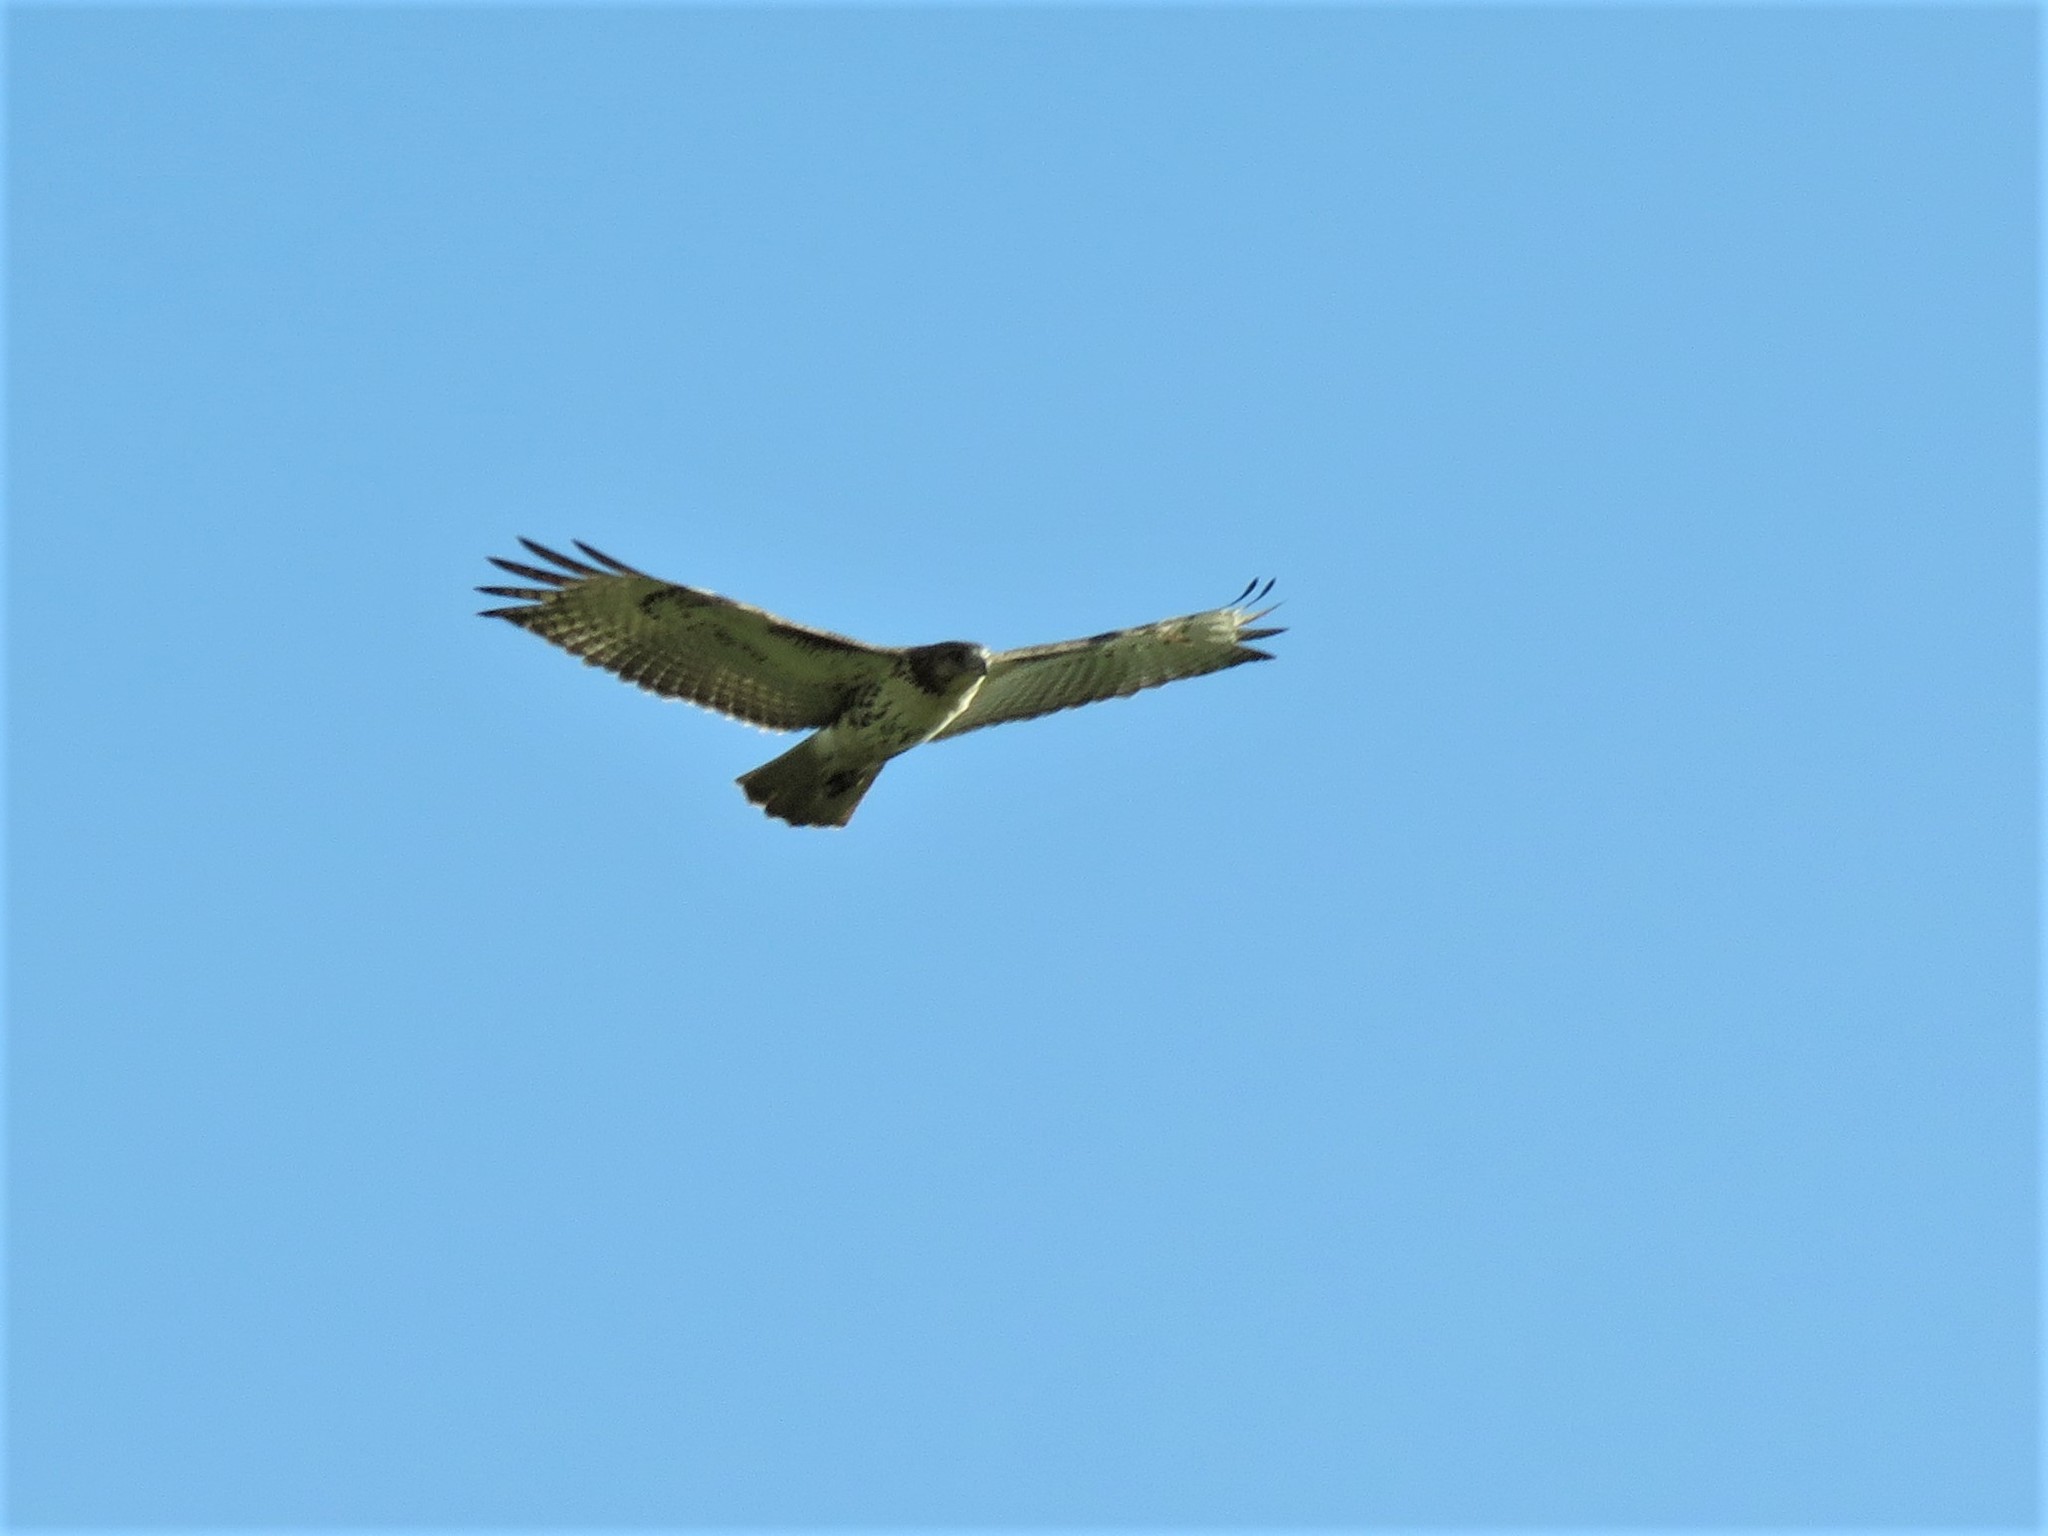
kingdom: Animalia
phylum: Chordata
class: Aves
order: Accipitriformes
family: Accipitridae
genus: Buteo
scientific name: Buteo jamaicensis
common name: Red-tailed hawk
